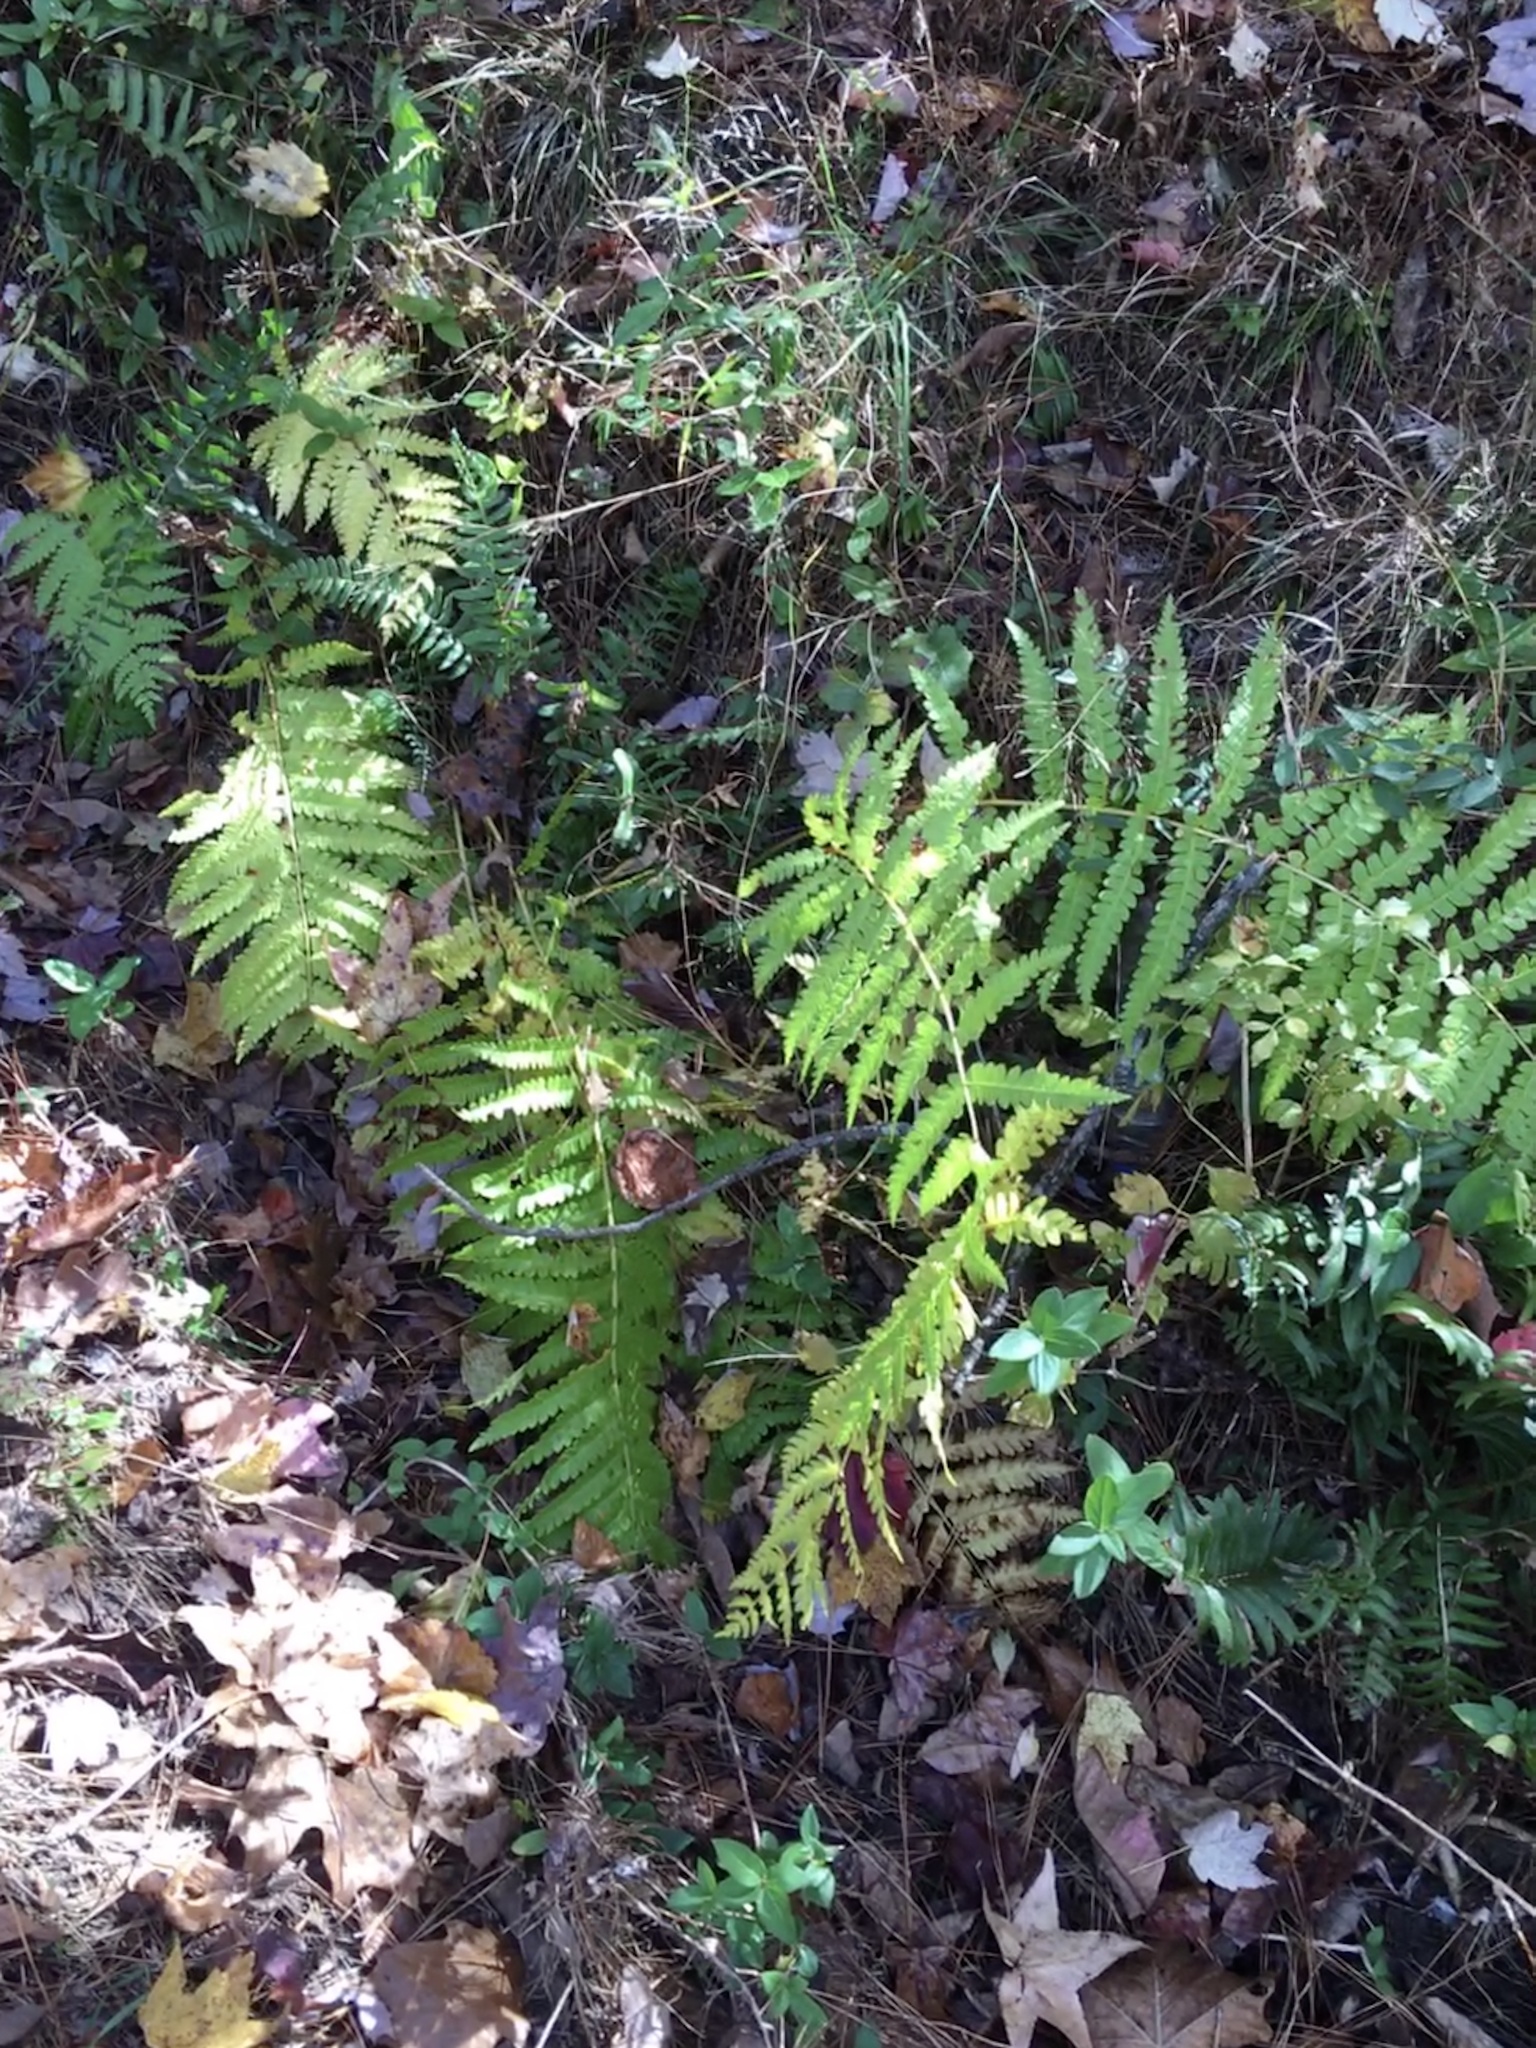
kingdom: Plantae
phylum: Tracheophyta
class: Polypodiopsida
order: Osmundales
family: Osmundaceae
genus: Osmundastrum
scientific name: Osmundastrum cinnamomeum
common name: Cinnamon fern
